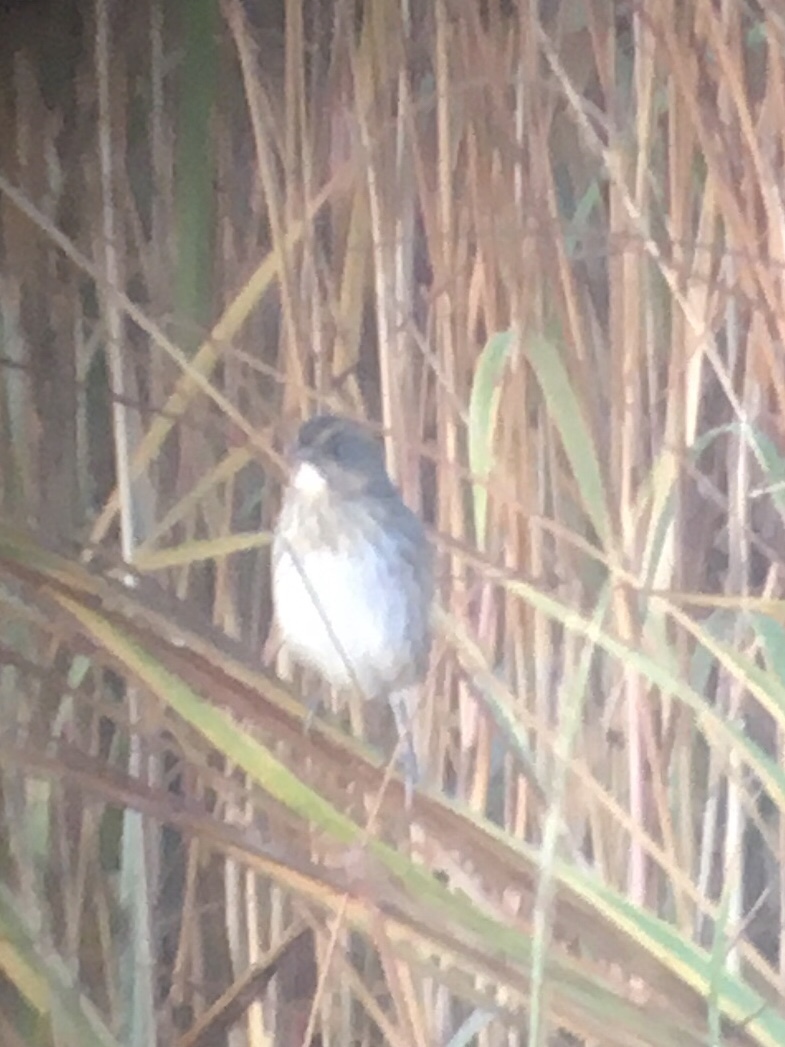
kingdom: Animalia
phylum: Chordata
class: Aves
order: Passeriformes
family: Passerellidae
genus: Ammospiza
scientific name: Ammospiza caudacuta
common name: Saltmarsh sparrow
